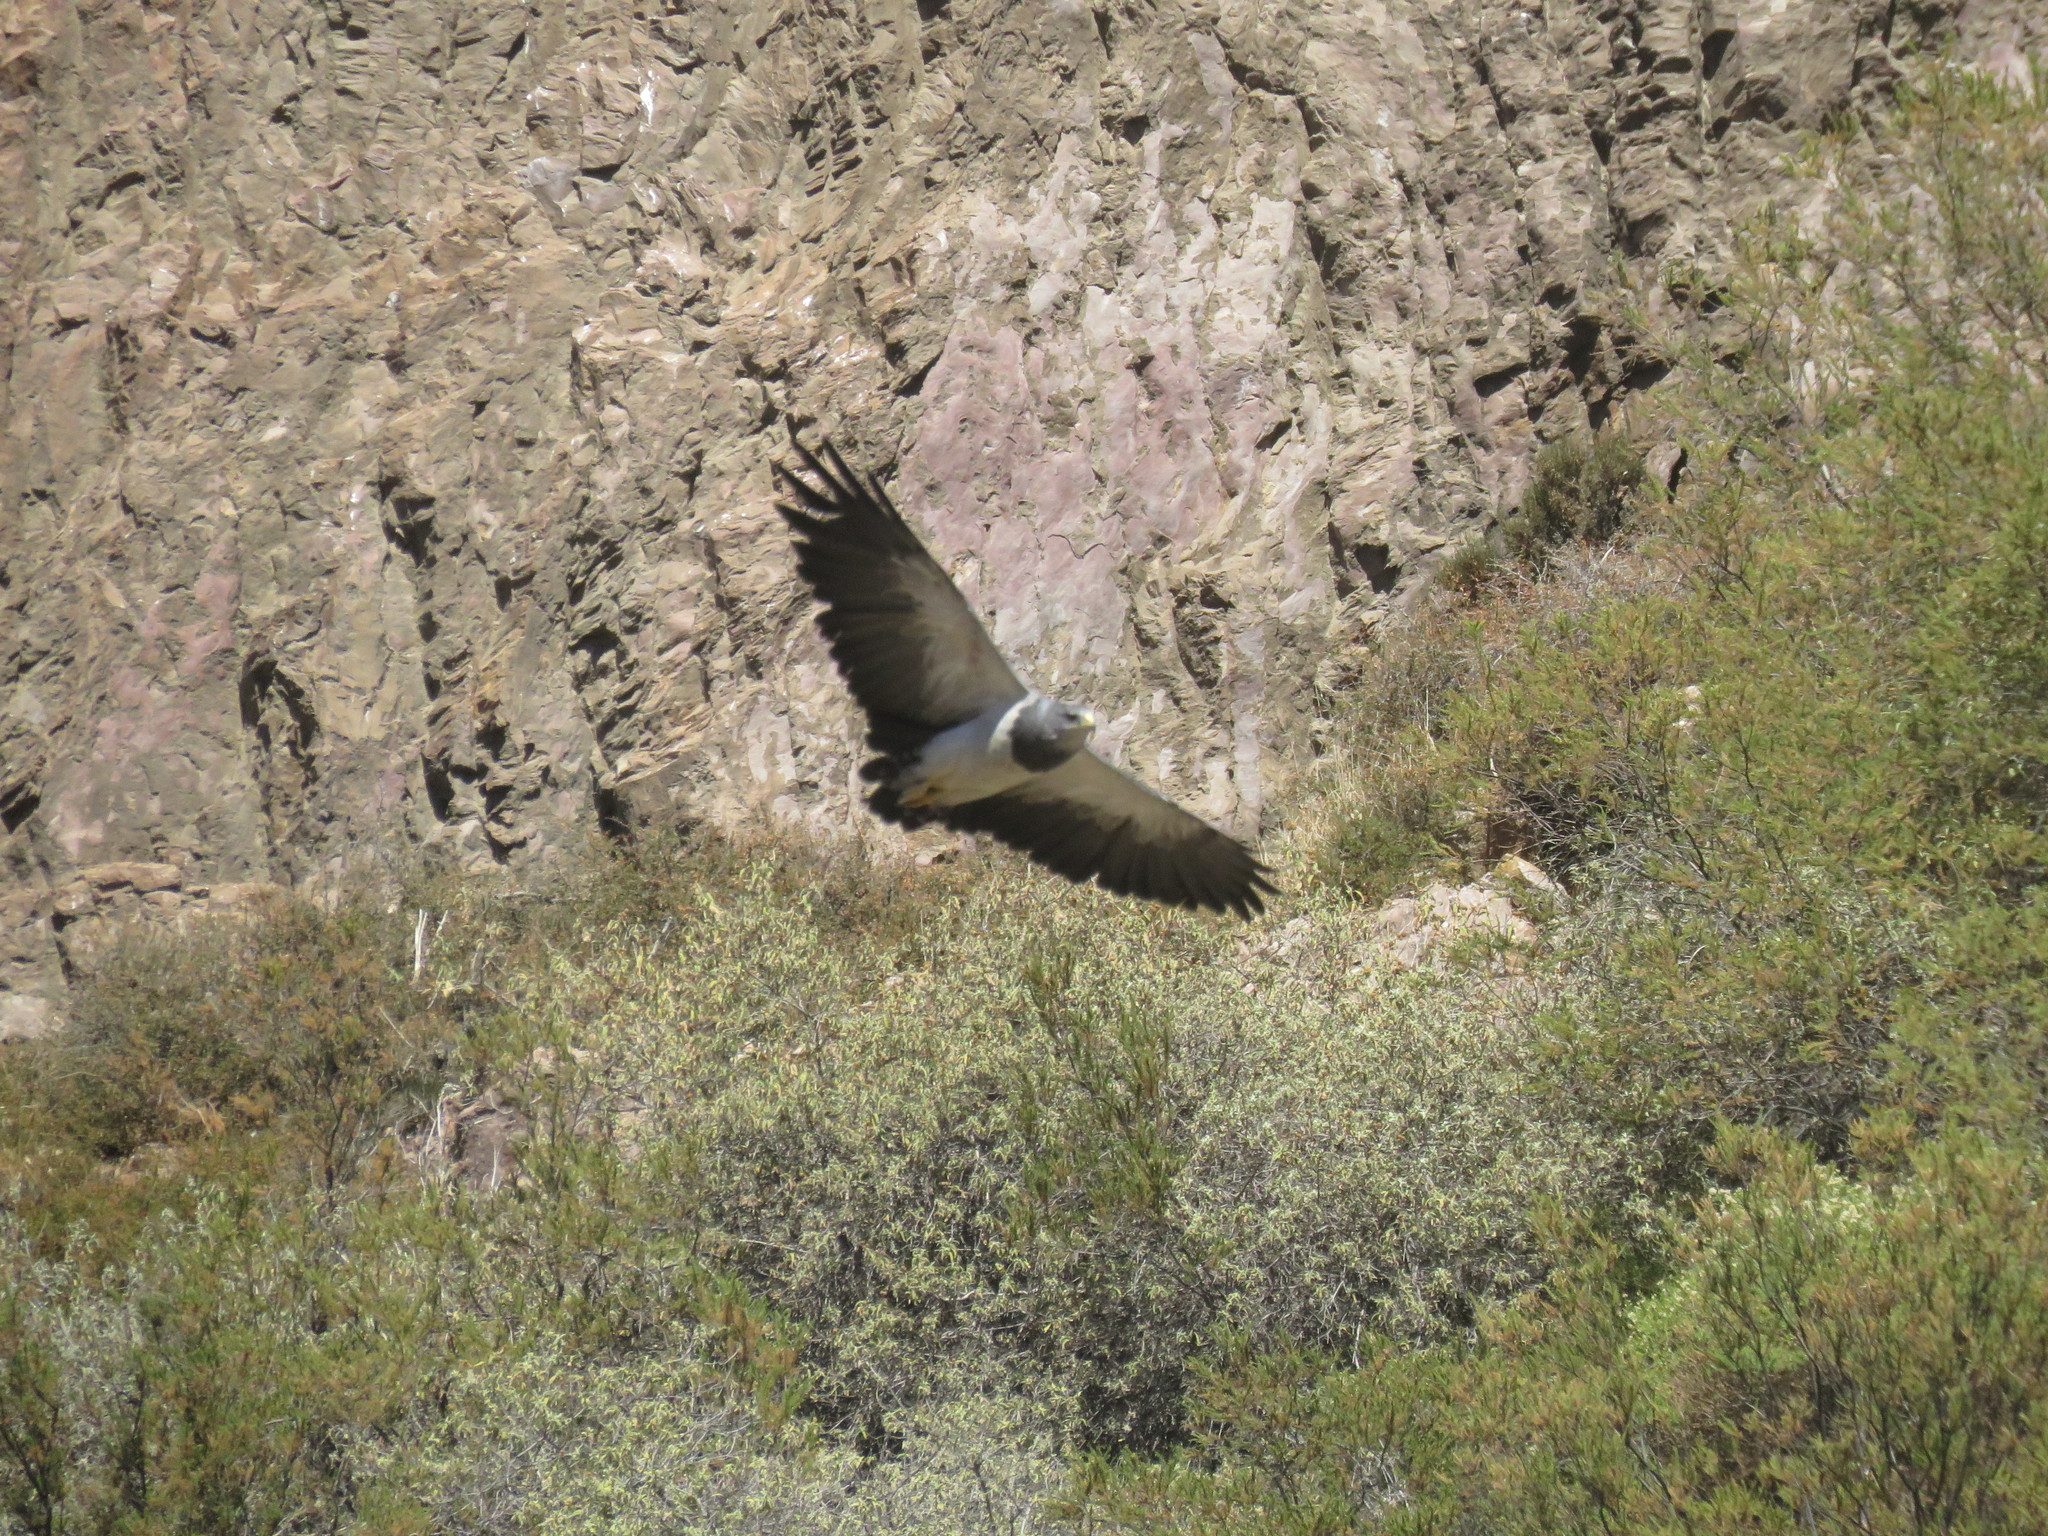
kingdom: Animalia
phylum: Chordata
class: Aves
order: Accipitriformes
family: Accipitridae
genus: Geranoaetus
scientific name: Geranoaetus melanoleucus
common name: Black-chested buzzard-eagle
